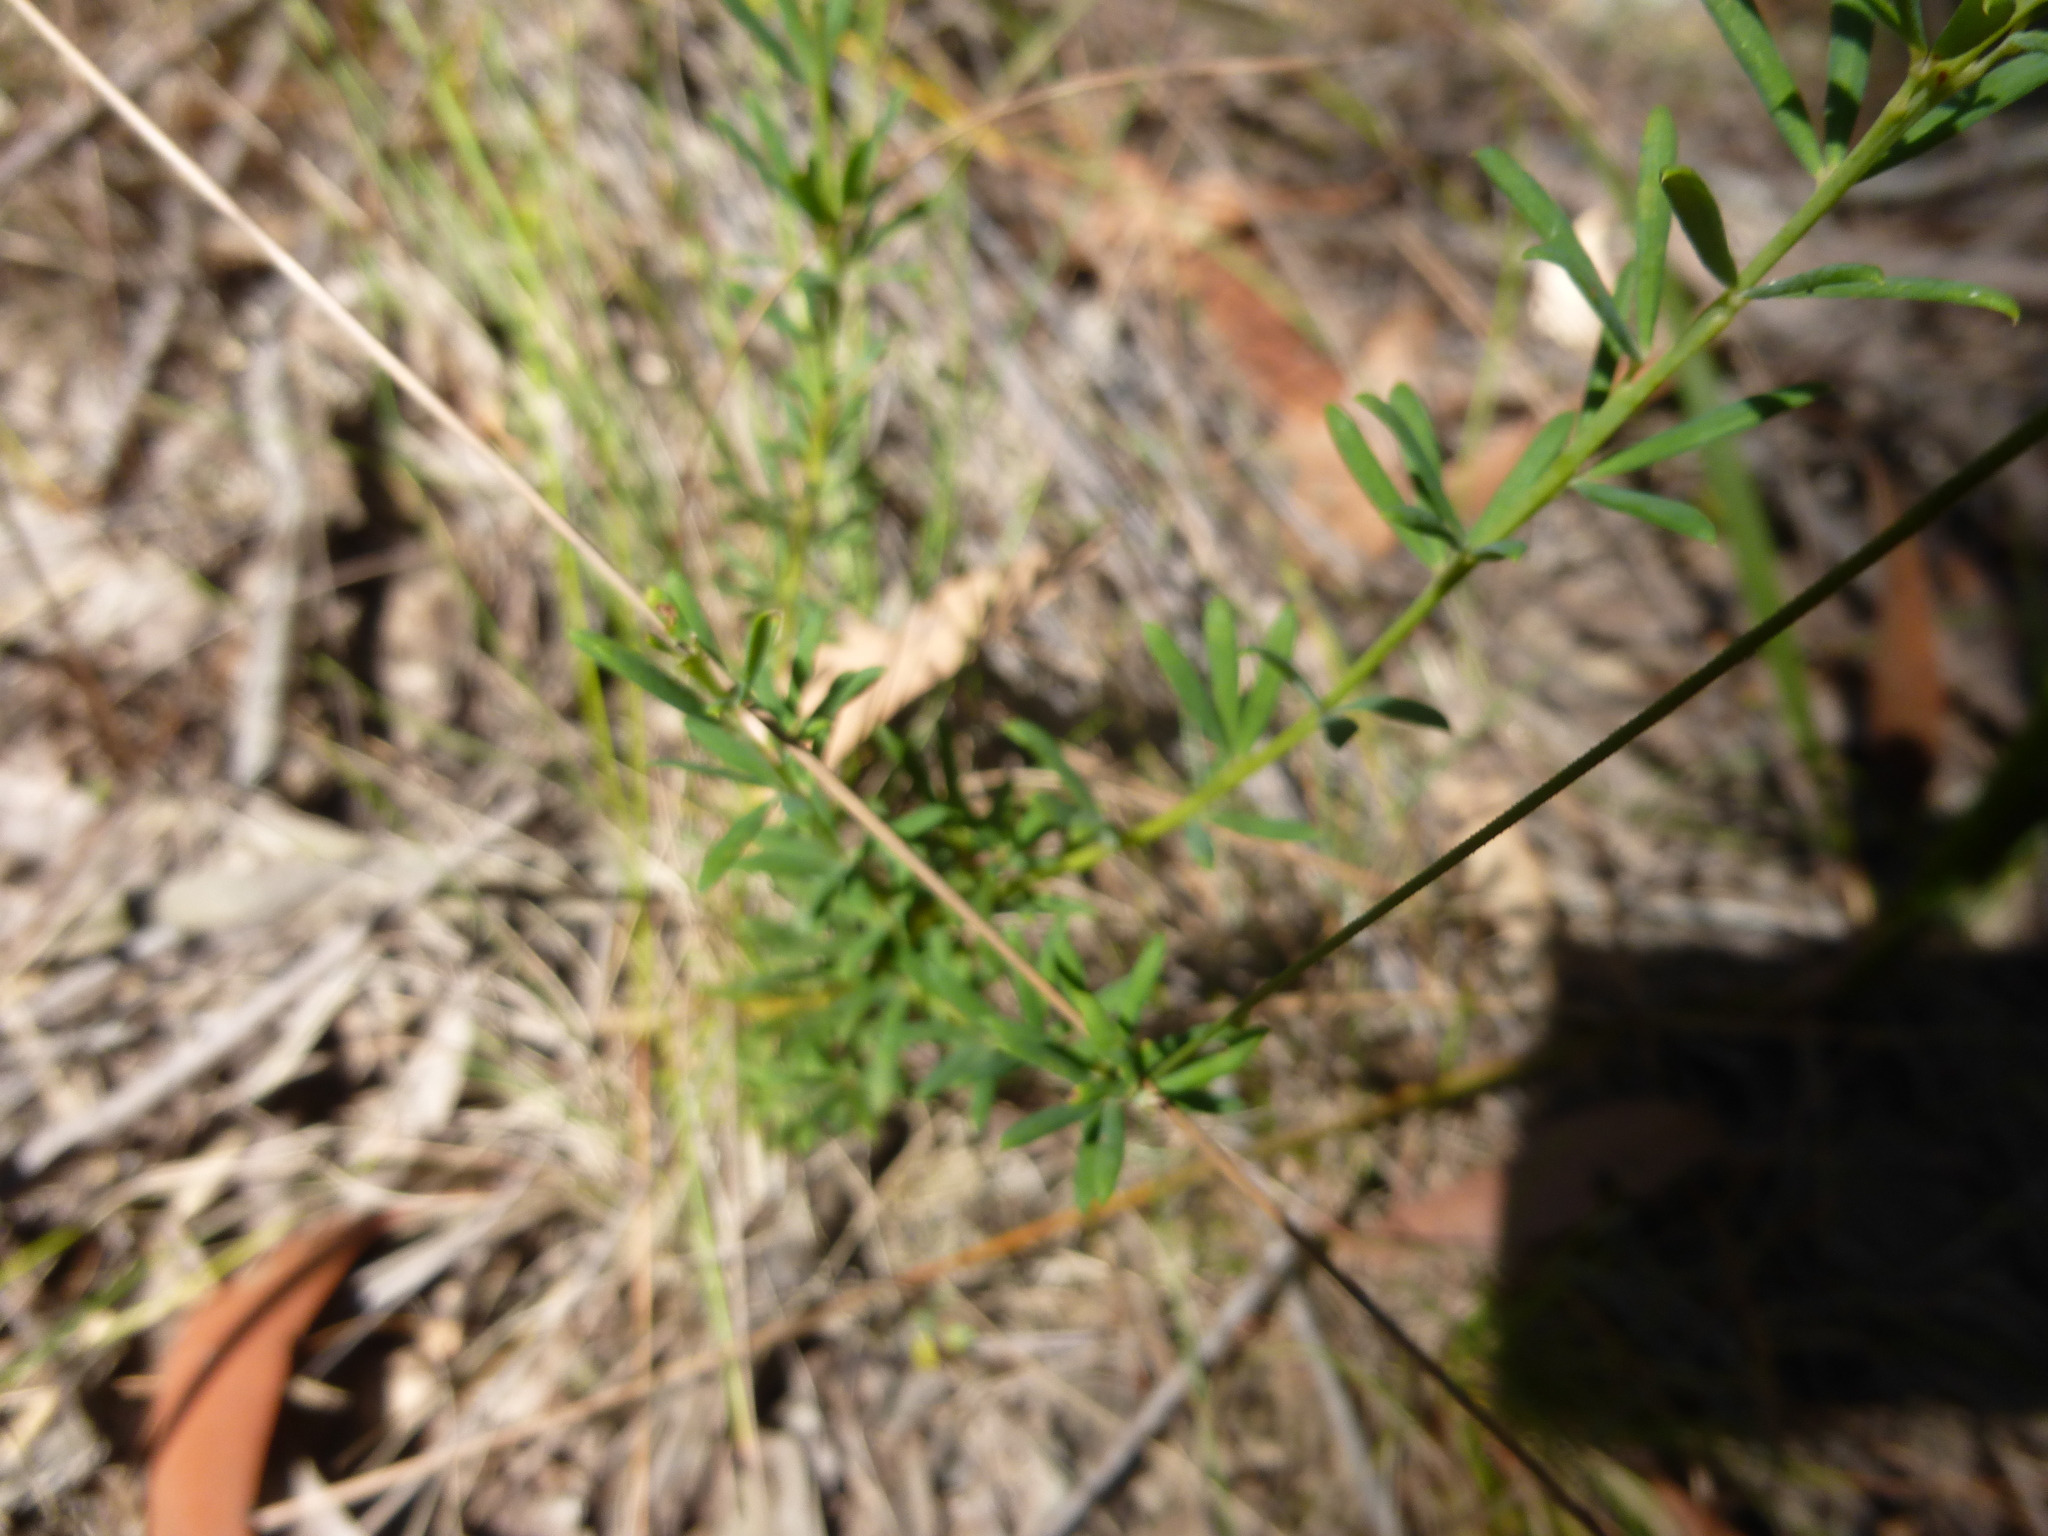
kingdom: Plantae
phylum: Tracheophyta
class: Magnoliopsida
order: Fabales
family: Fabaceae
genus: Gompholobium
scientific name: Gompholobium huegelii
